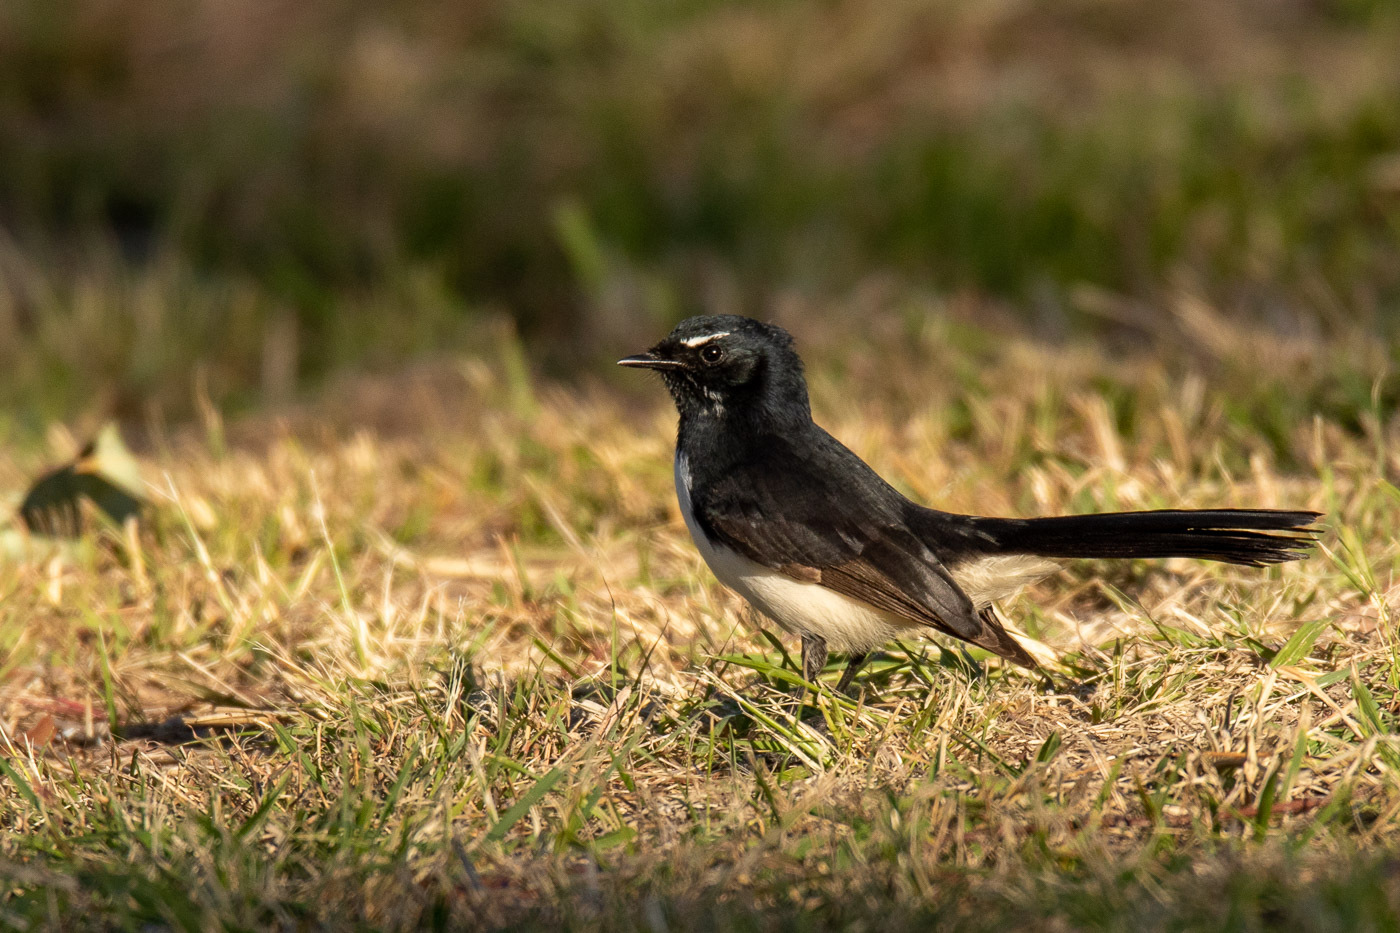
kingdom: Animalia
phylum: Chordata
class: Aves
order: Passeriformes
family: Rhipiduridae
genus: Rhipidura
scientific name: Rhipidura leucophrys
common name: Willie wagtail
